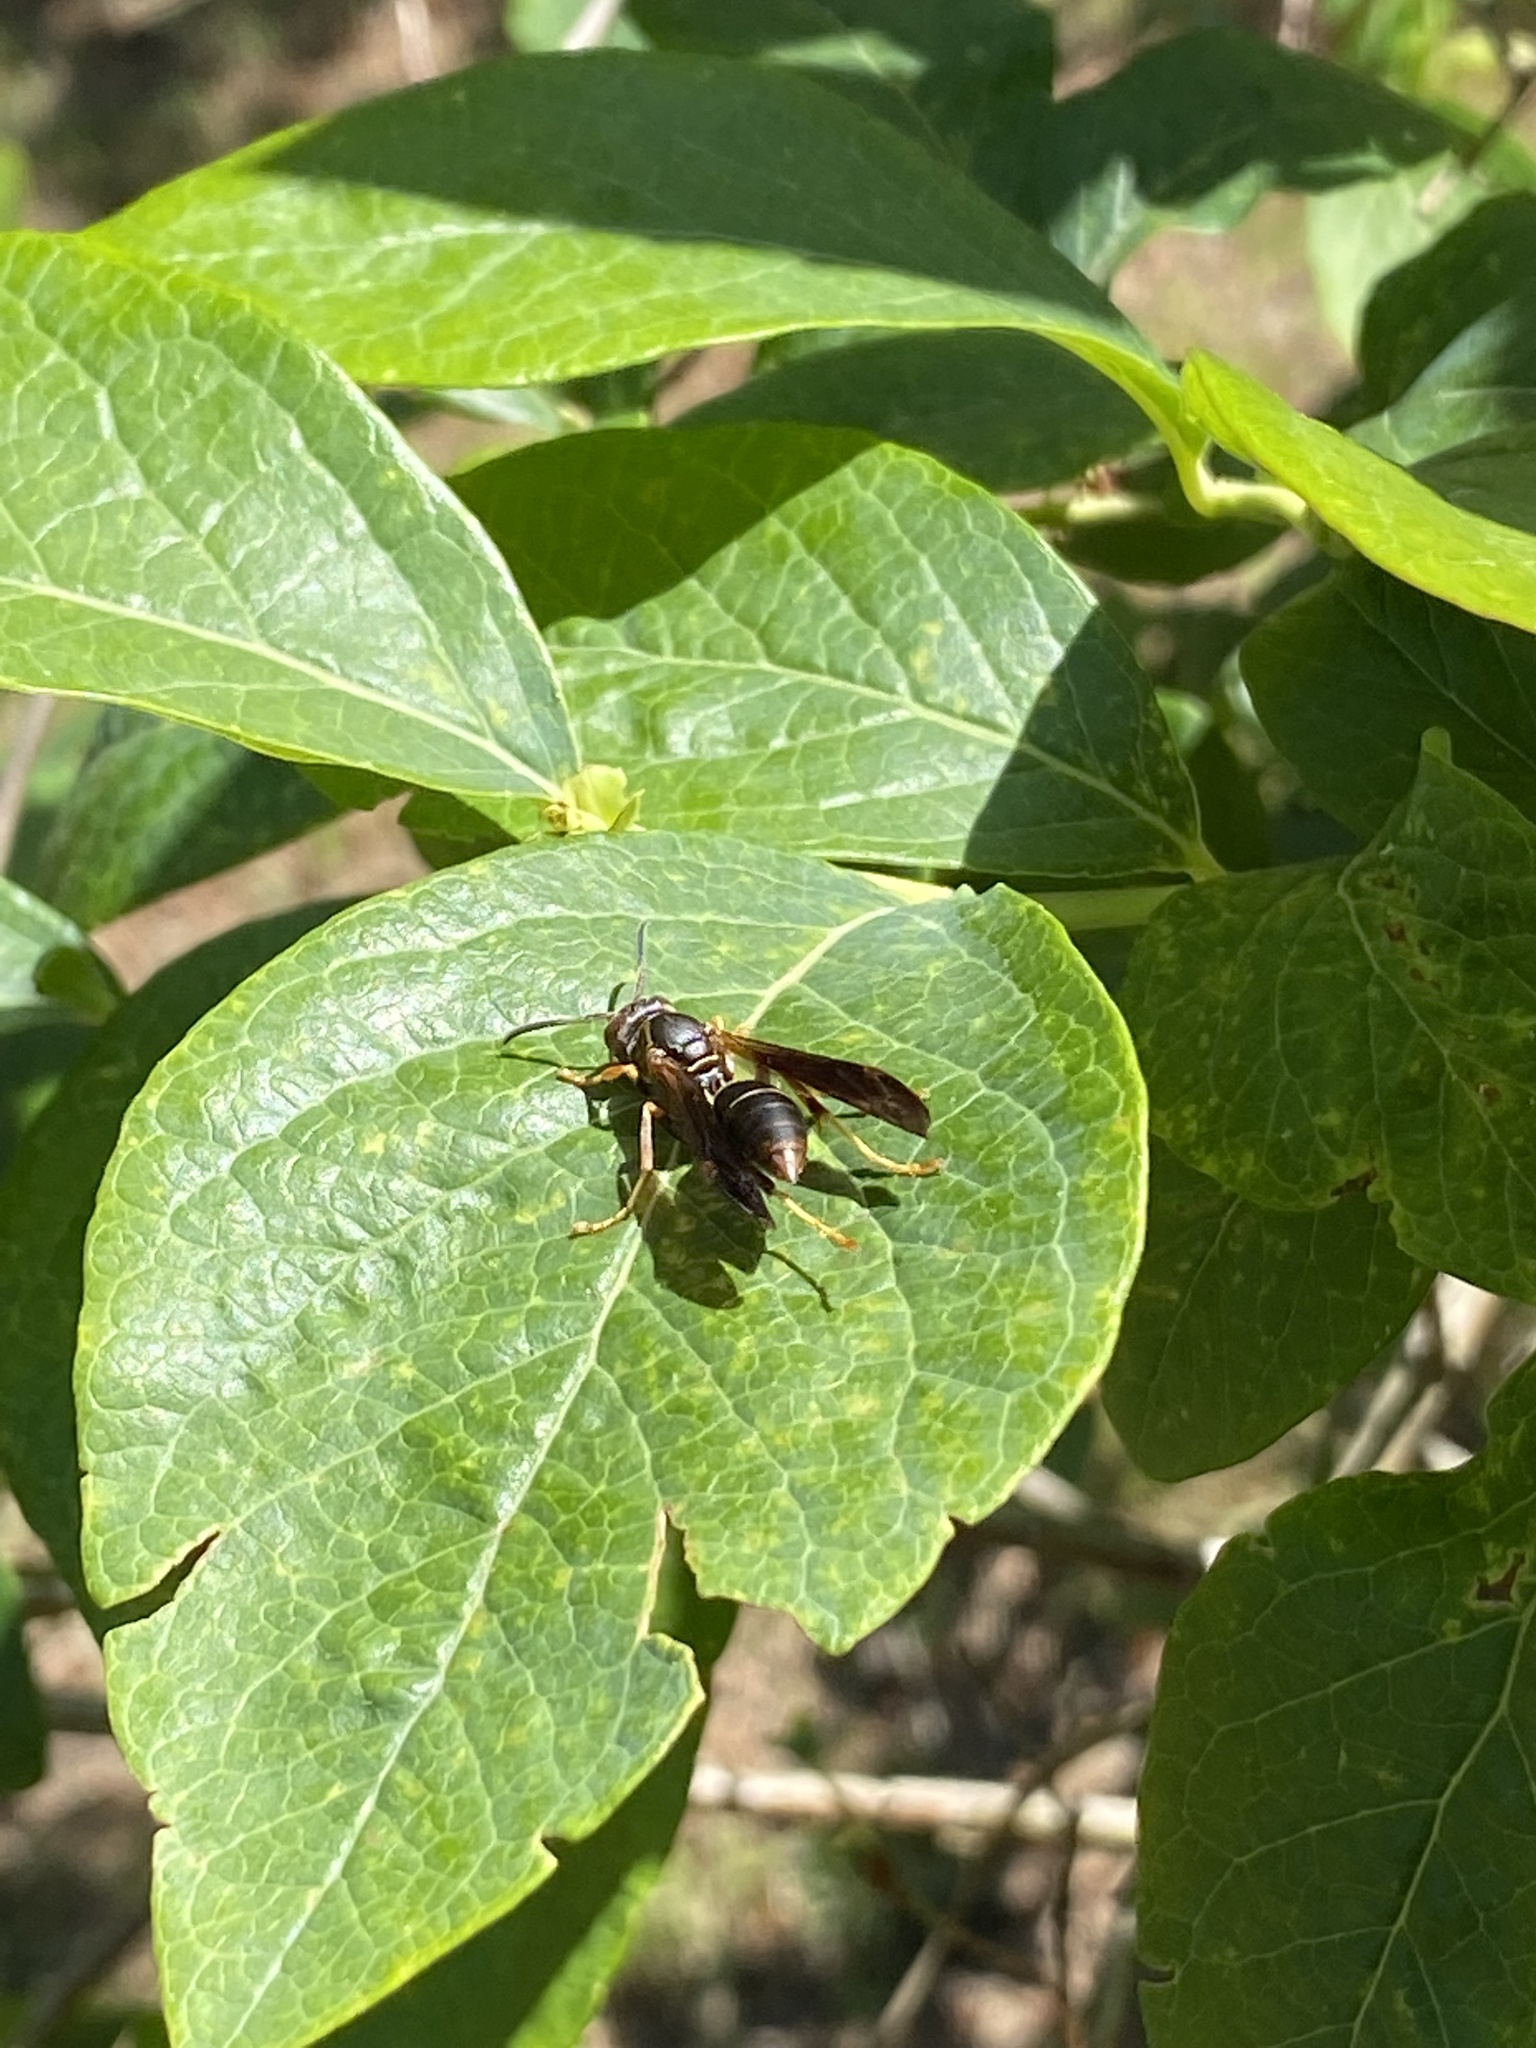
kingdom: Animalia
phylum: Arthropoda
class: Insecta
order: Hymenoptera
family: Eumenidae
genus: Polistes
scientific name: Polistes fuscatus
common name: Dark paper wasp
